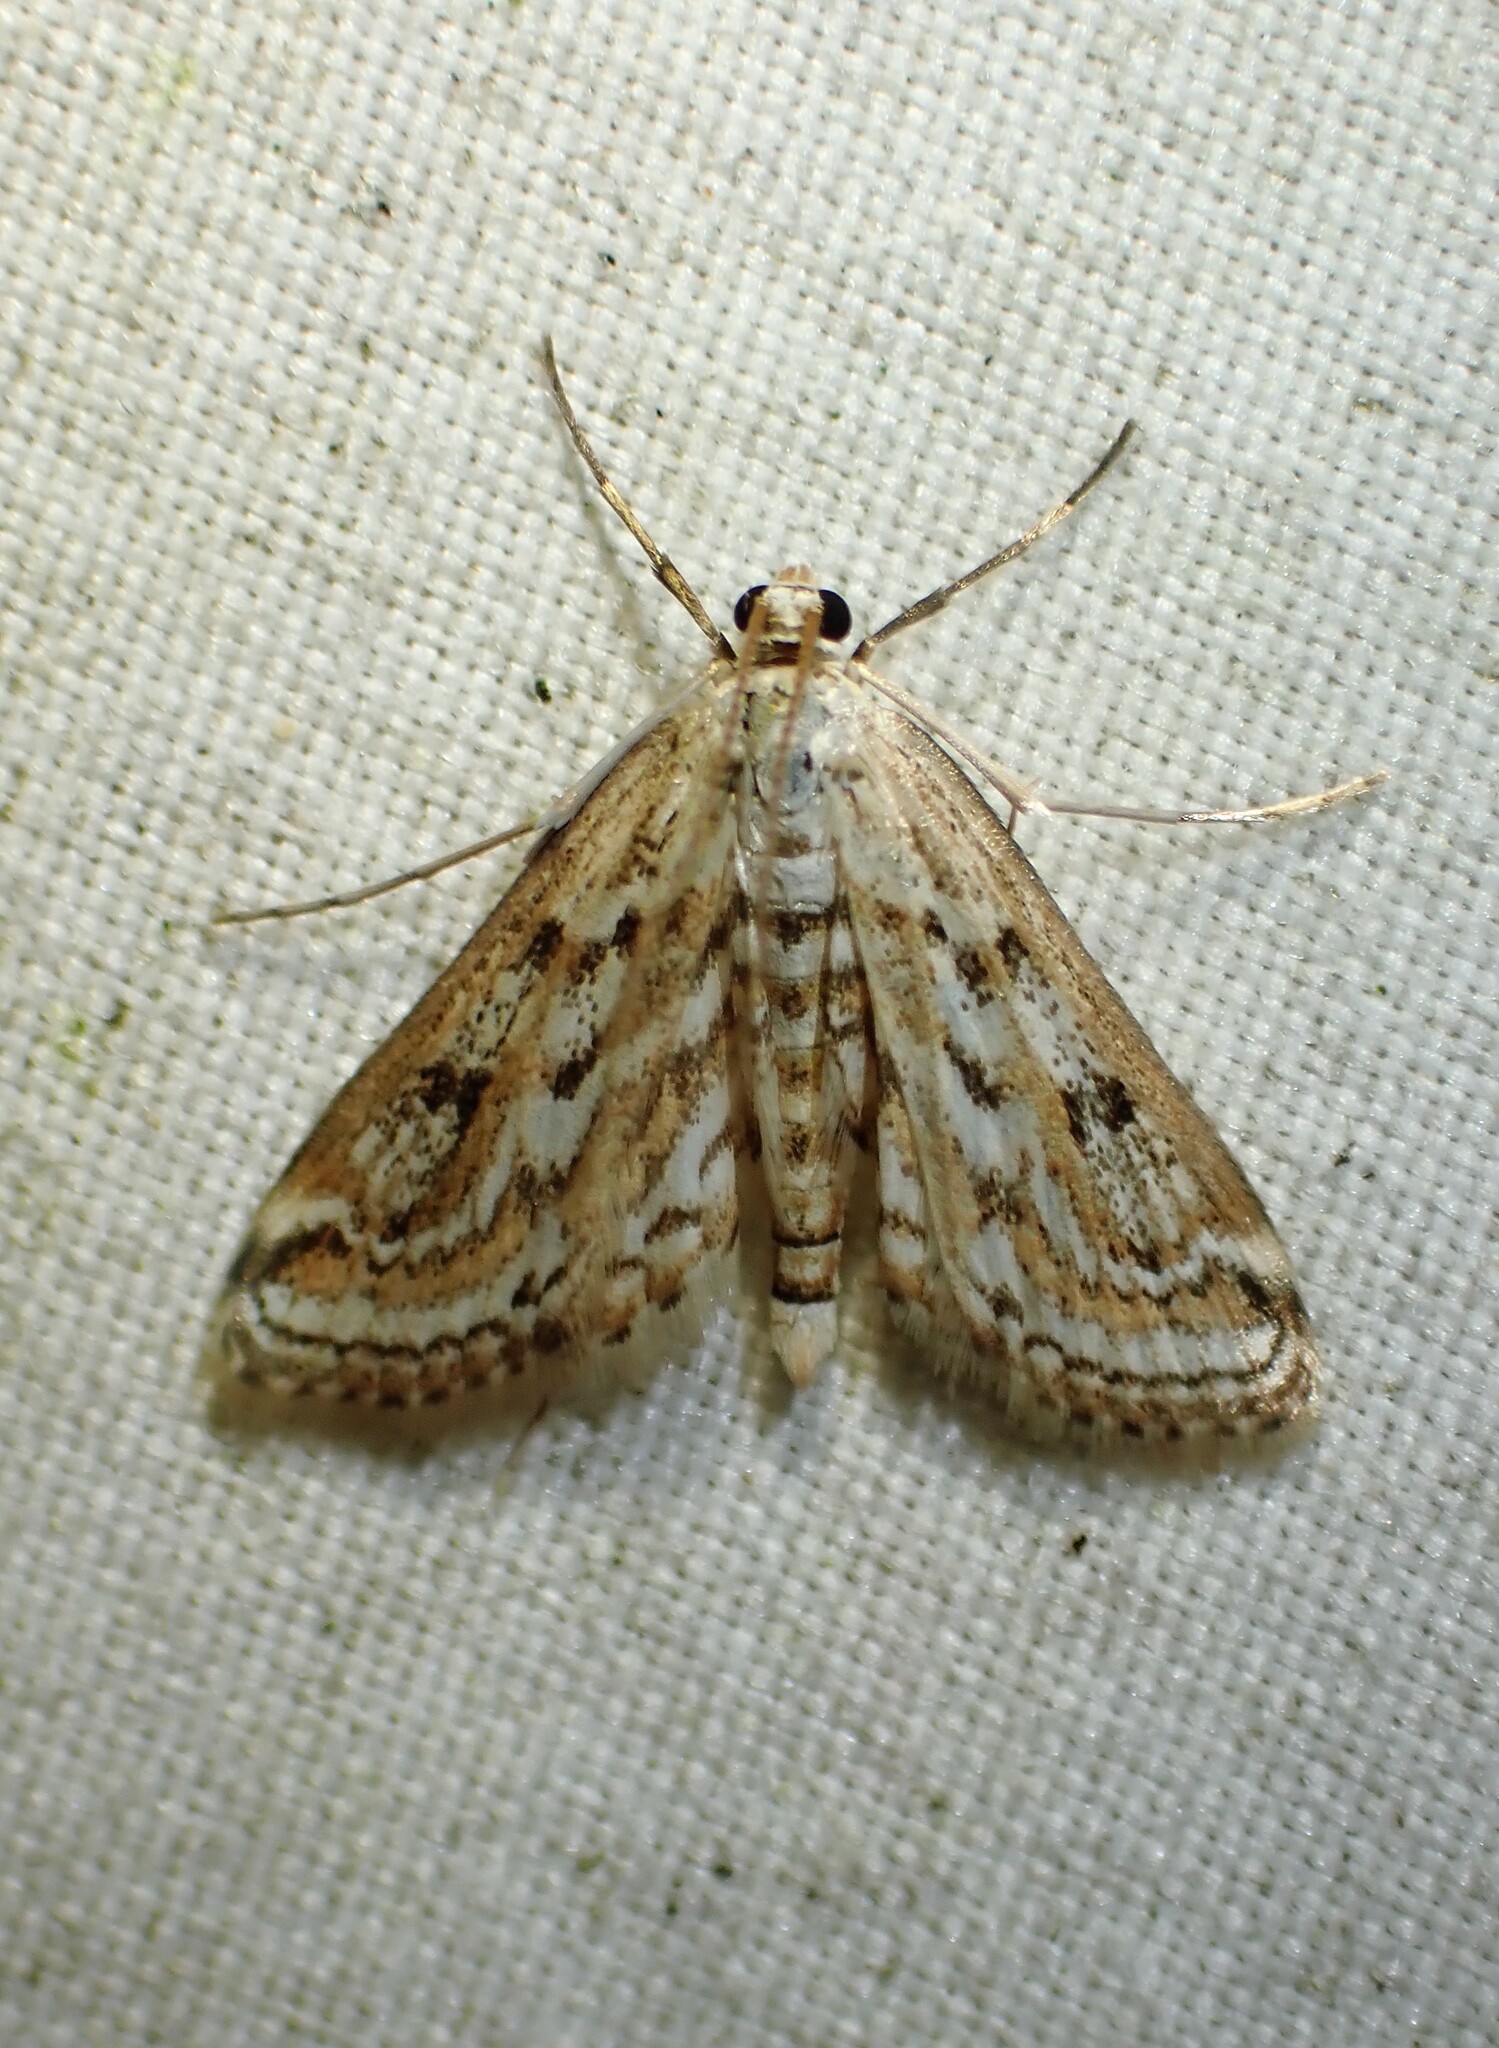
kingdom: Animalia
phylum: Arthropoda
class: Insecta
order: Lepidoptera
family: Crambidae
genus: Parapoynx
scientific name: Parapoynx allionealis
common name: Bladderwort casemaker
